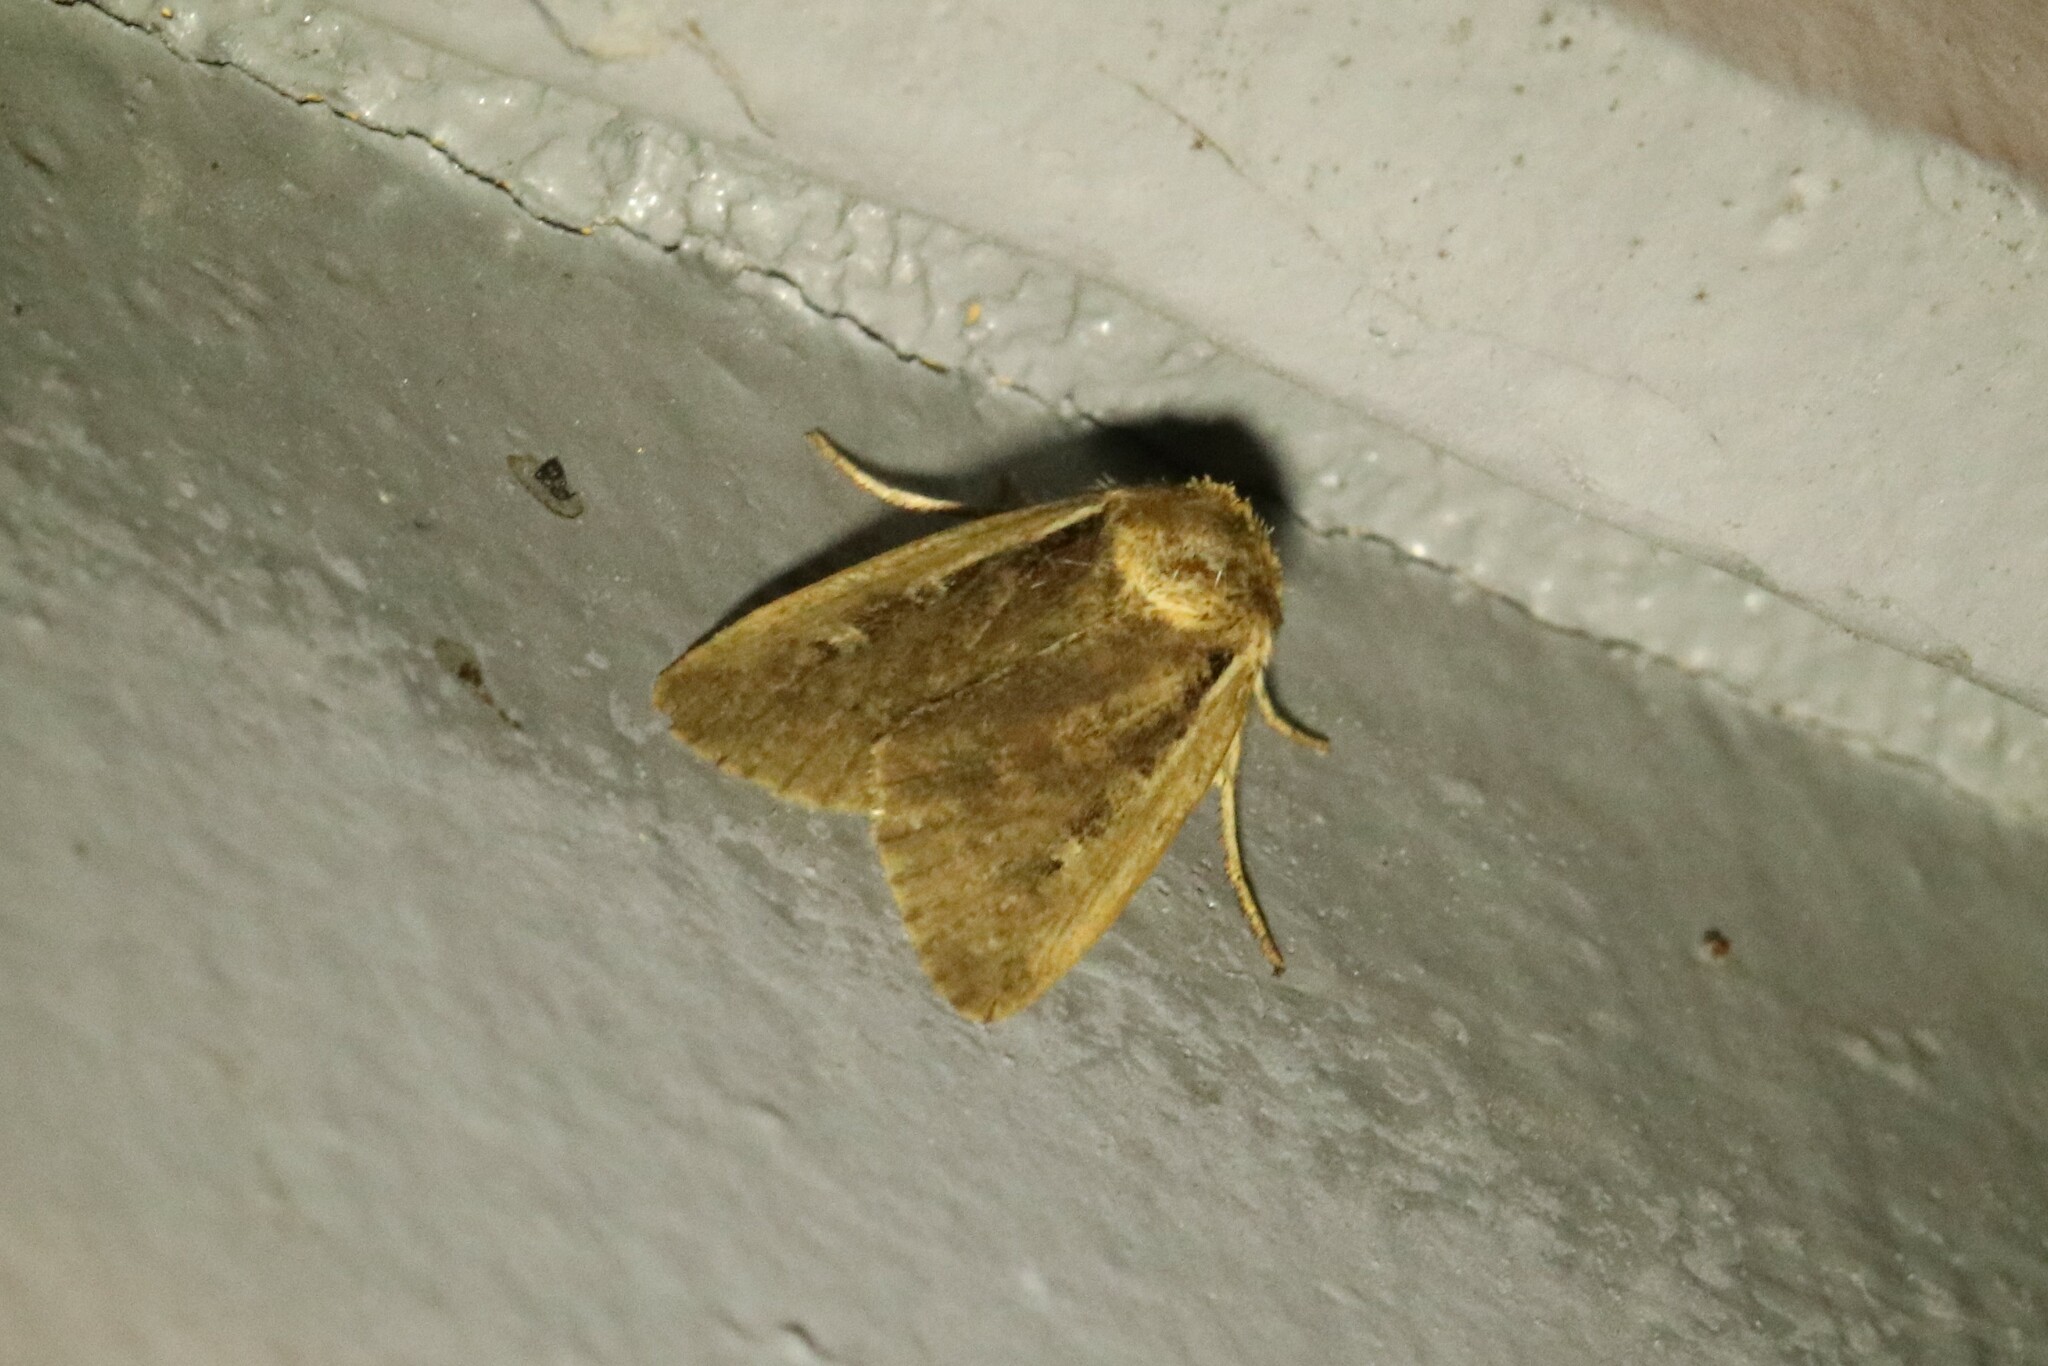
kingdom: Animalia
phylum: Arthropoda
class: Insecta
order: Lepidoptera
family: Noctuidae
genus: Ochropleura
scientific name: Ochropleura implecta
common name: Flame-shouldered dart
